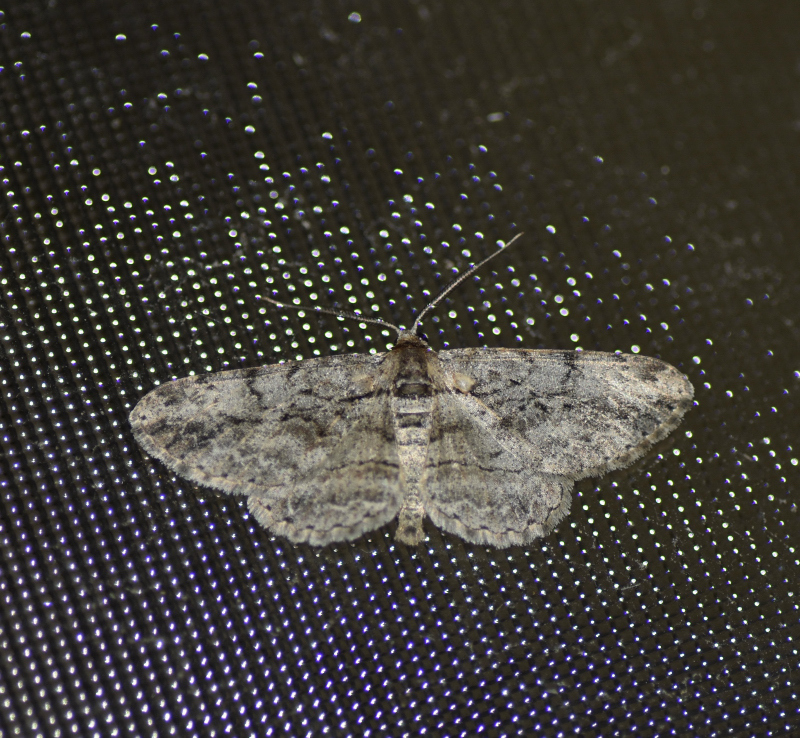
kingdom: Animalia
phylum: Arthropoda
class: Insecta
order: Lepidoptera
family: Geometridae
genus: Anavitrinella
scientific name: Anavitrinella pampinaria
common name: Common gray
